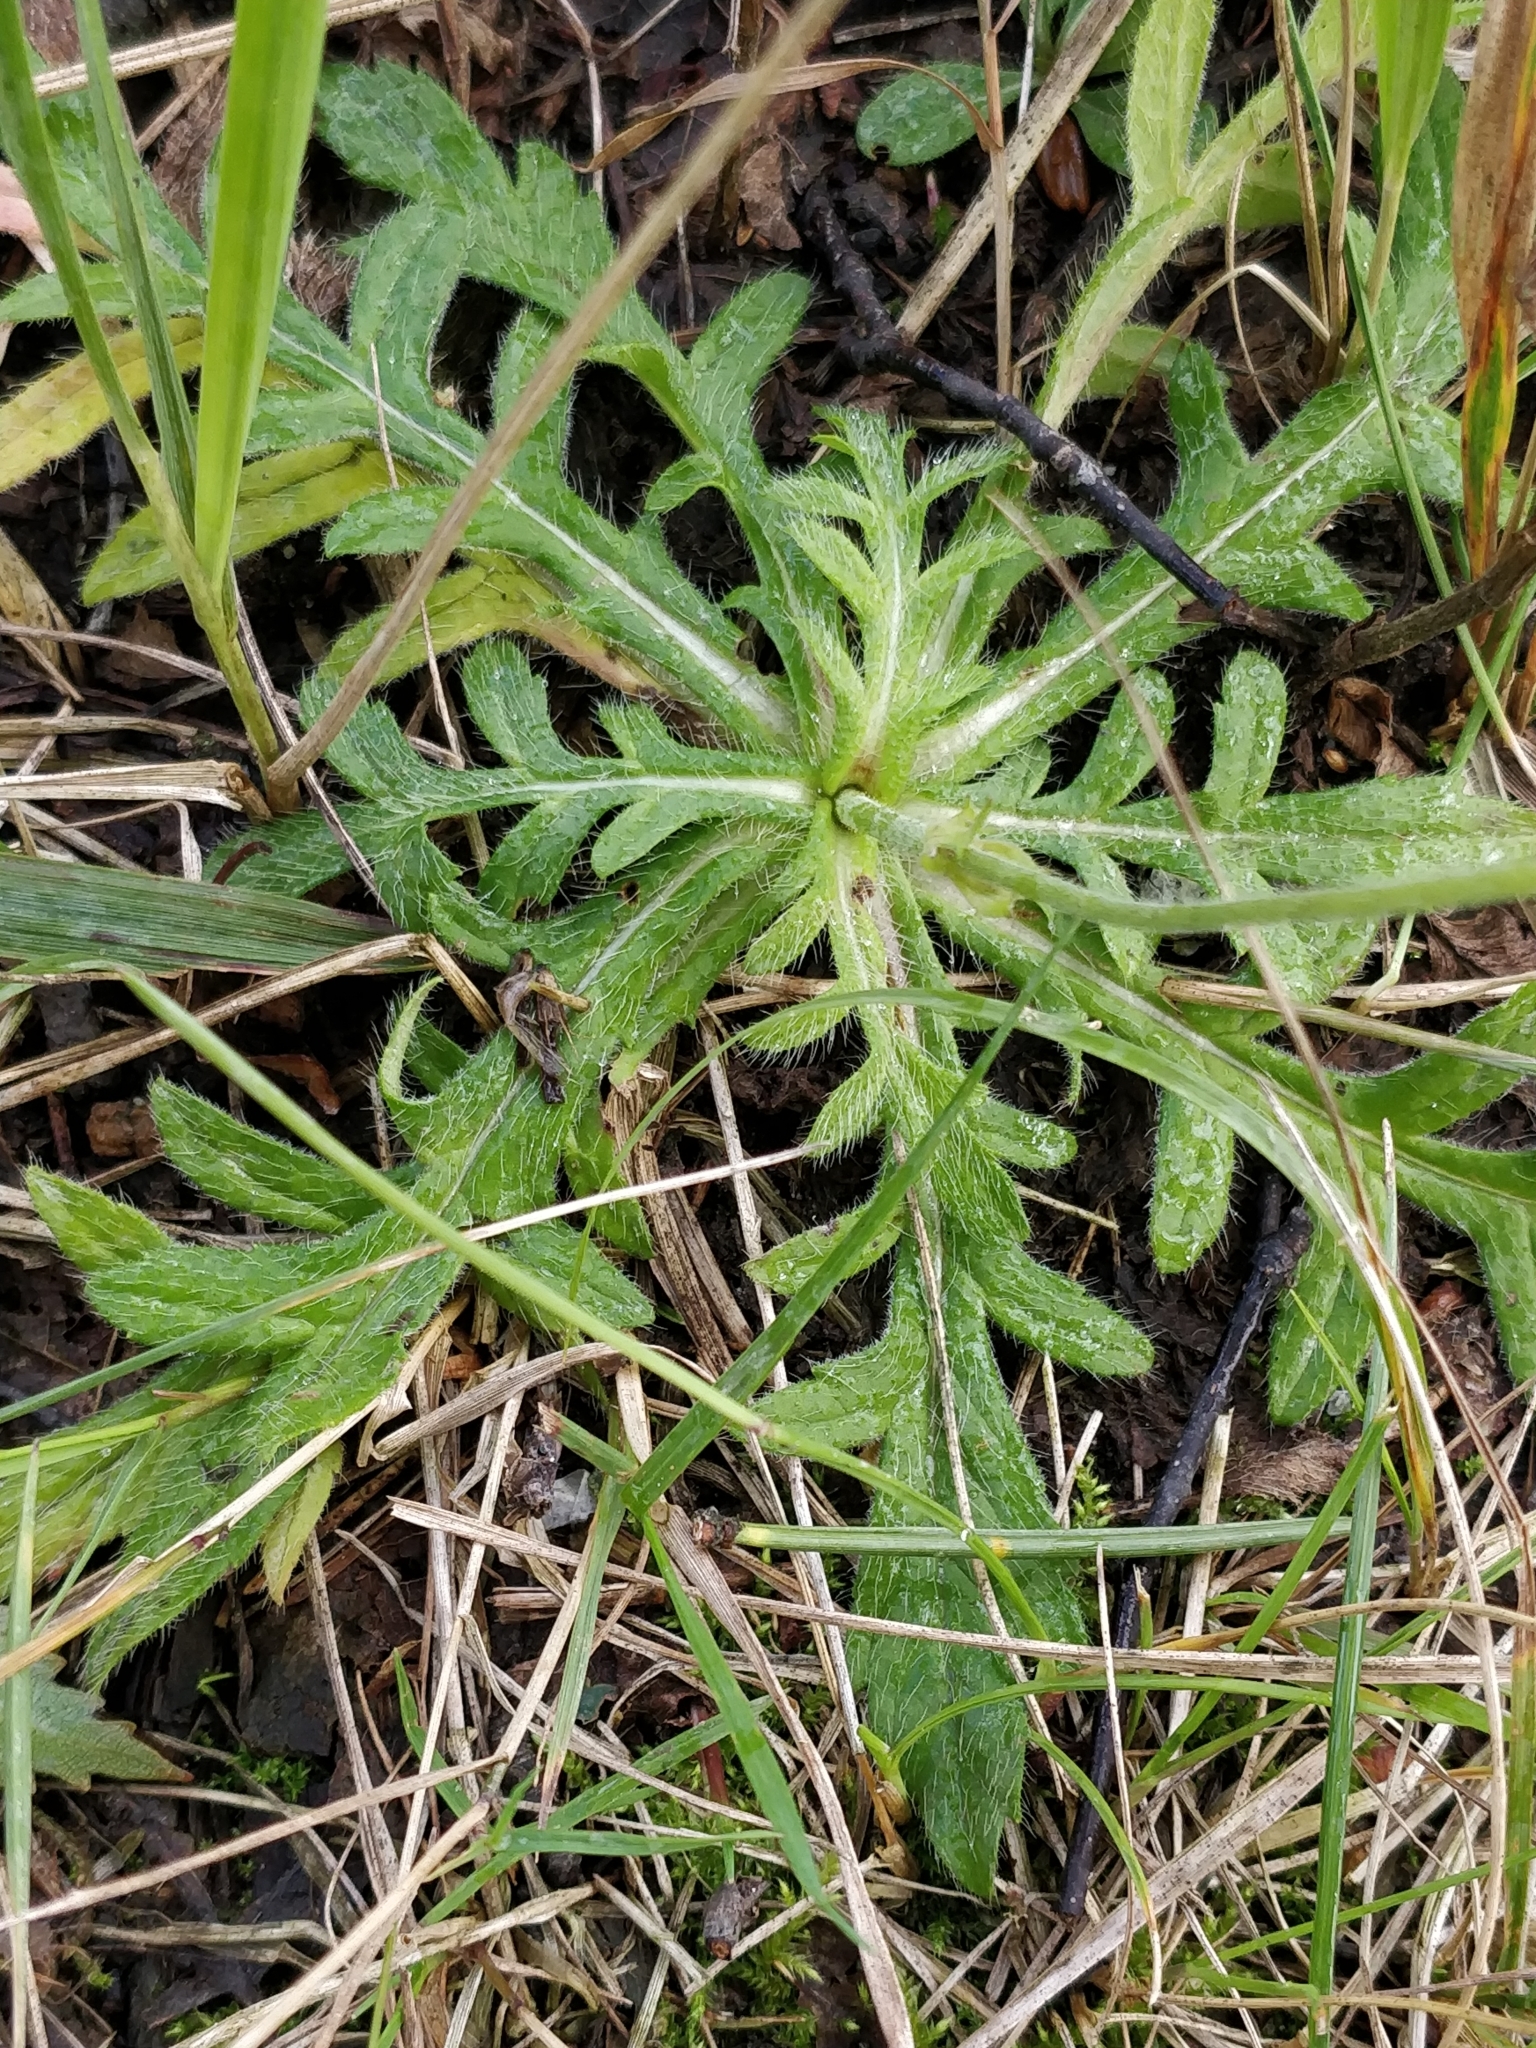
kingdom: Plantae
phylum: Tracheophyta
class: Magnoliopsida
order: Dipsacales
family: Caprifoliaceae
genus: Knautia
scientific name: Knautia arvensis
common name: Field scabiosa
